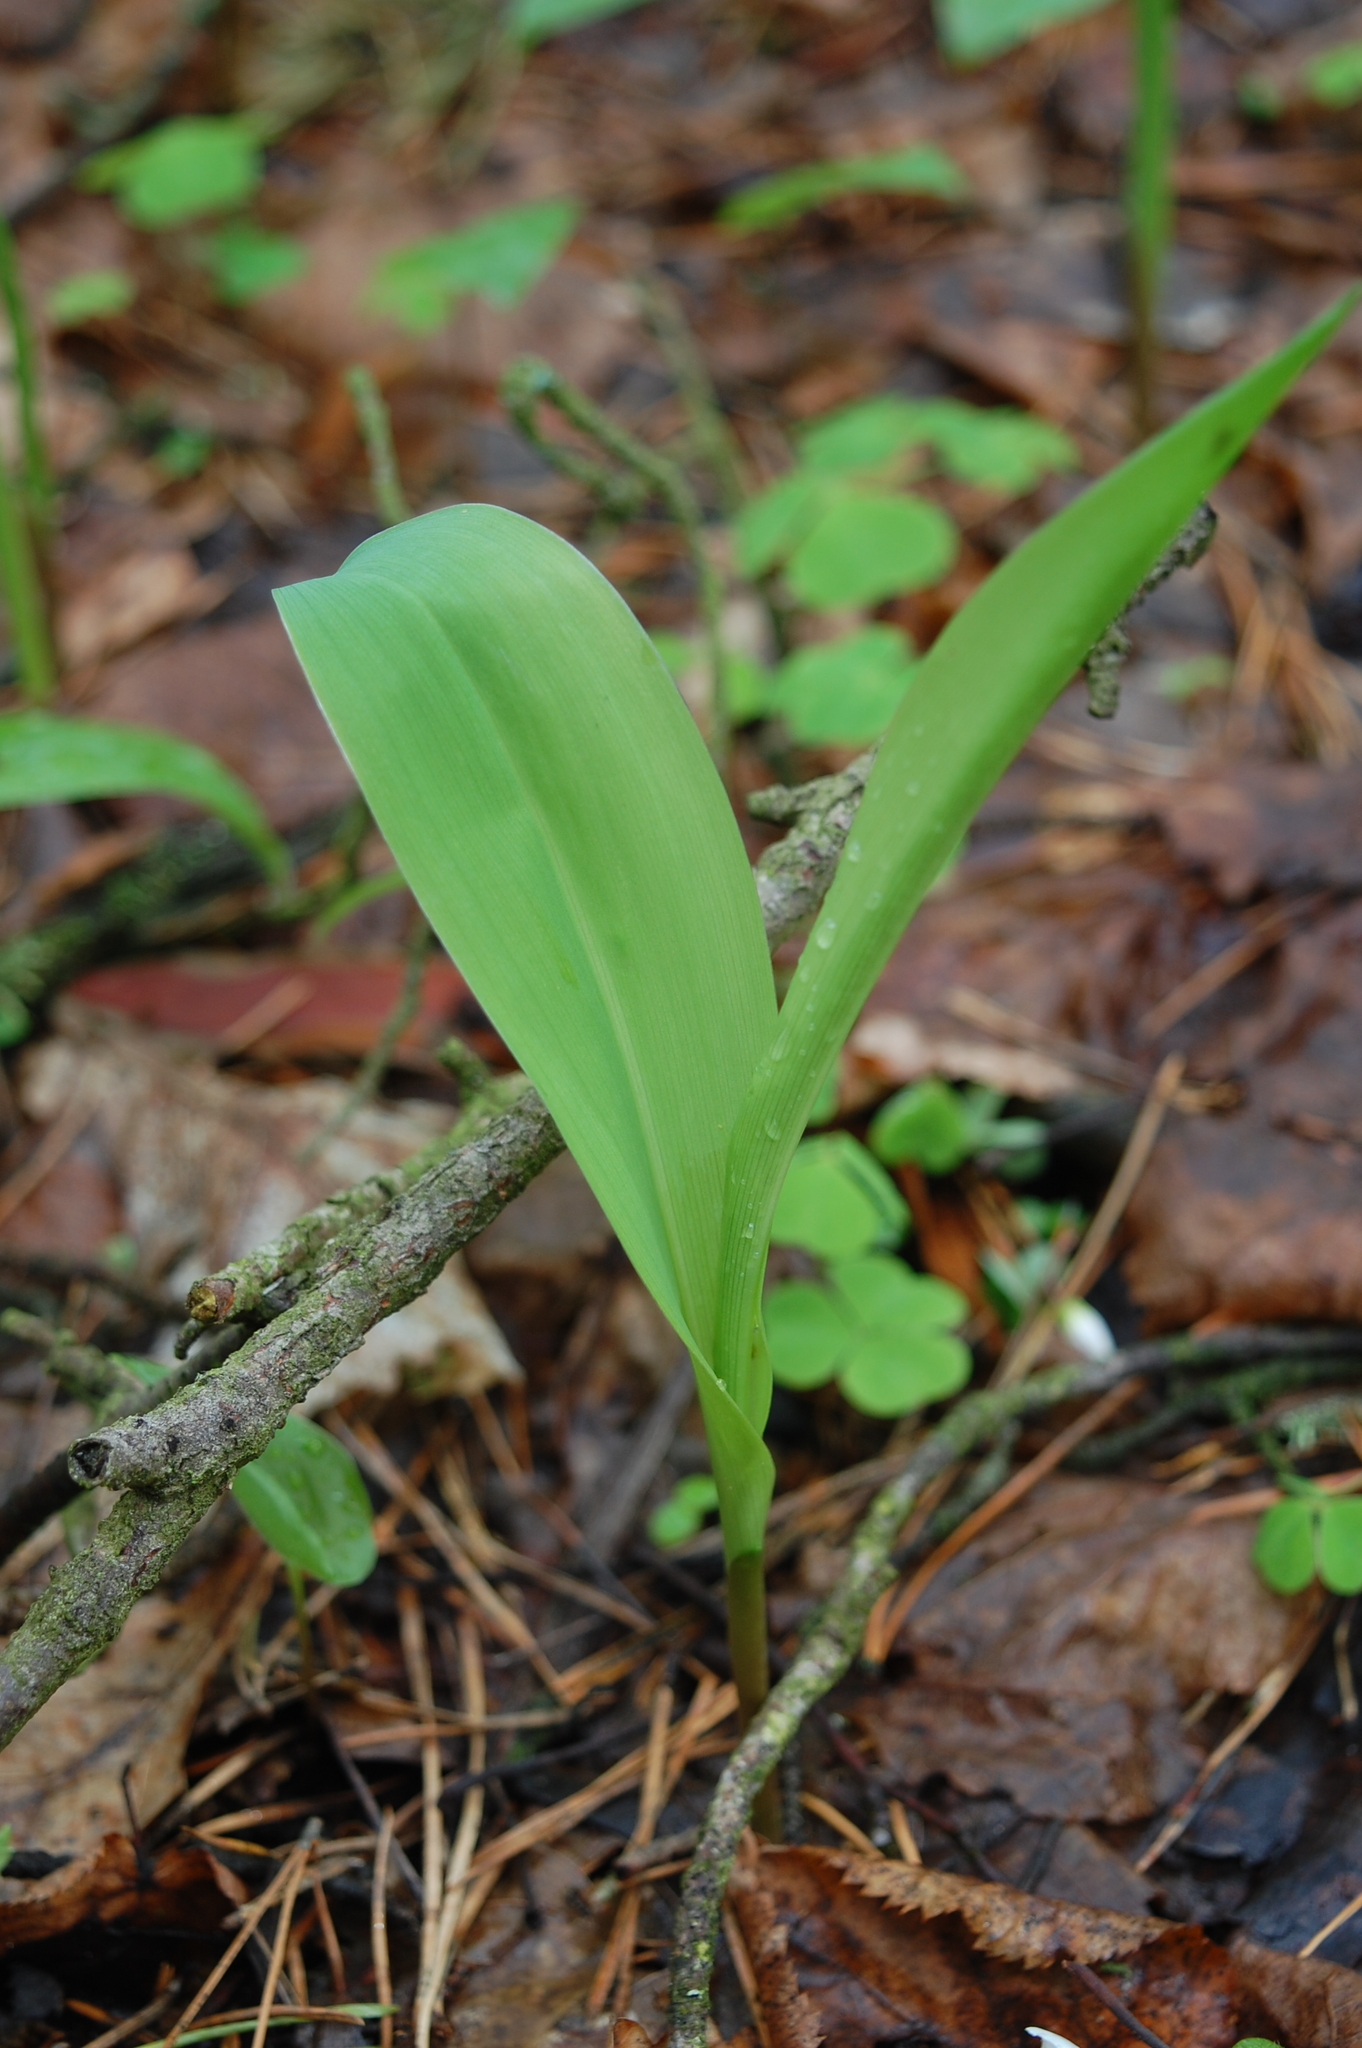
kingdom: Plantae
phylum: Tracheophyta
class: Liliopsida
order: Asparagales
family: Asparagaceae
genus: Convallaria
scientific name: Convallaria majalis
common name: Lily-of-the-valley
